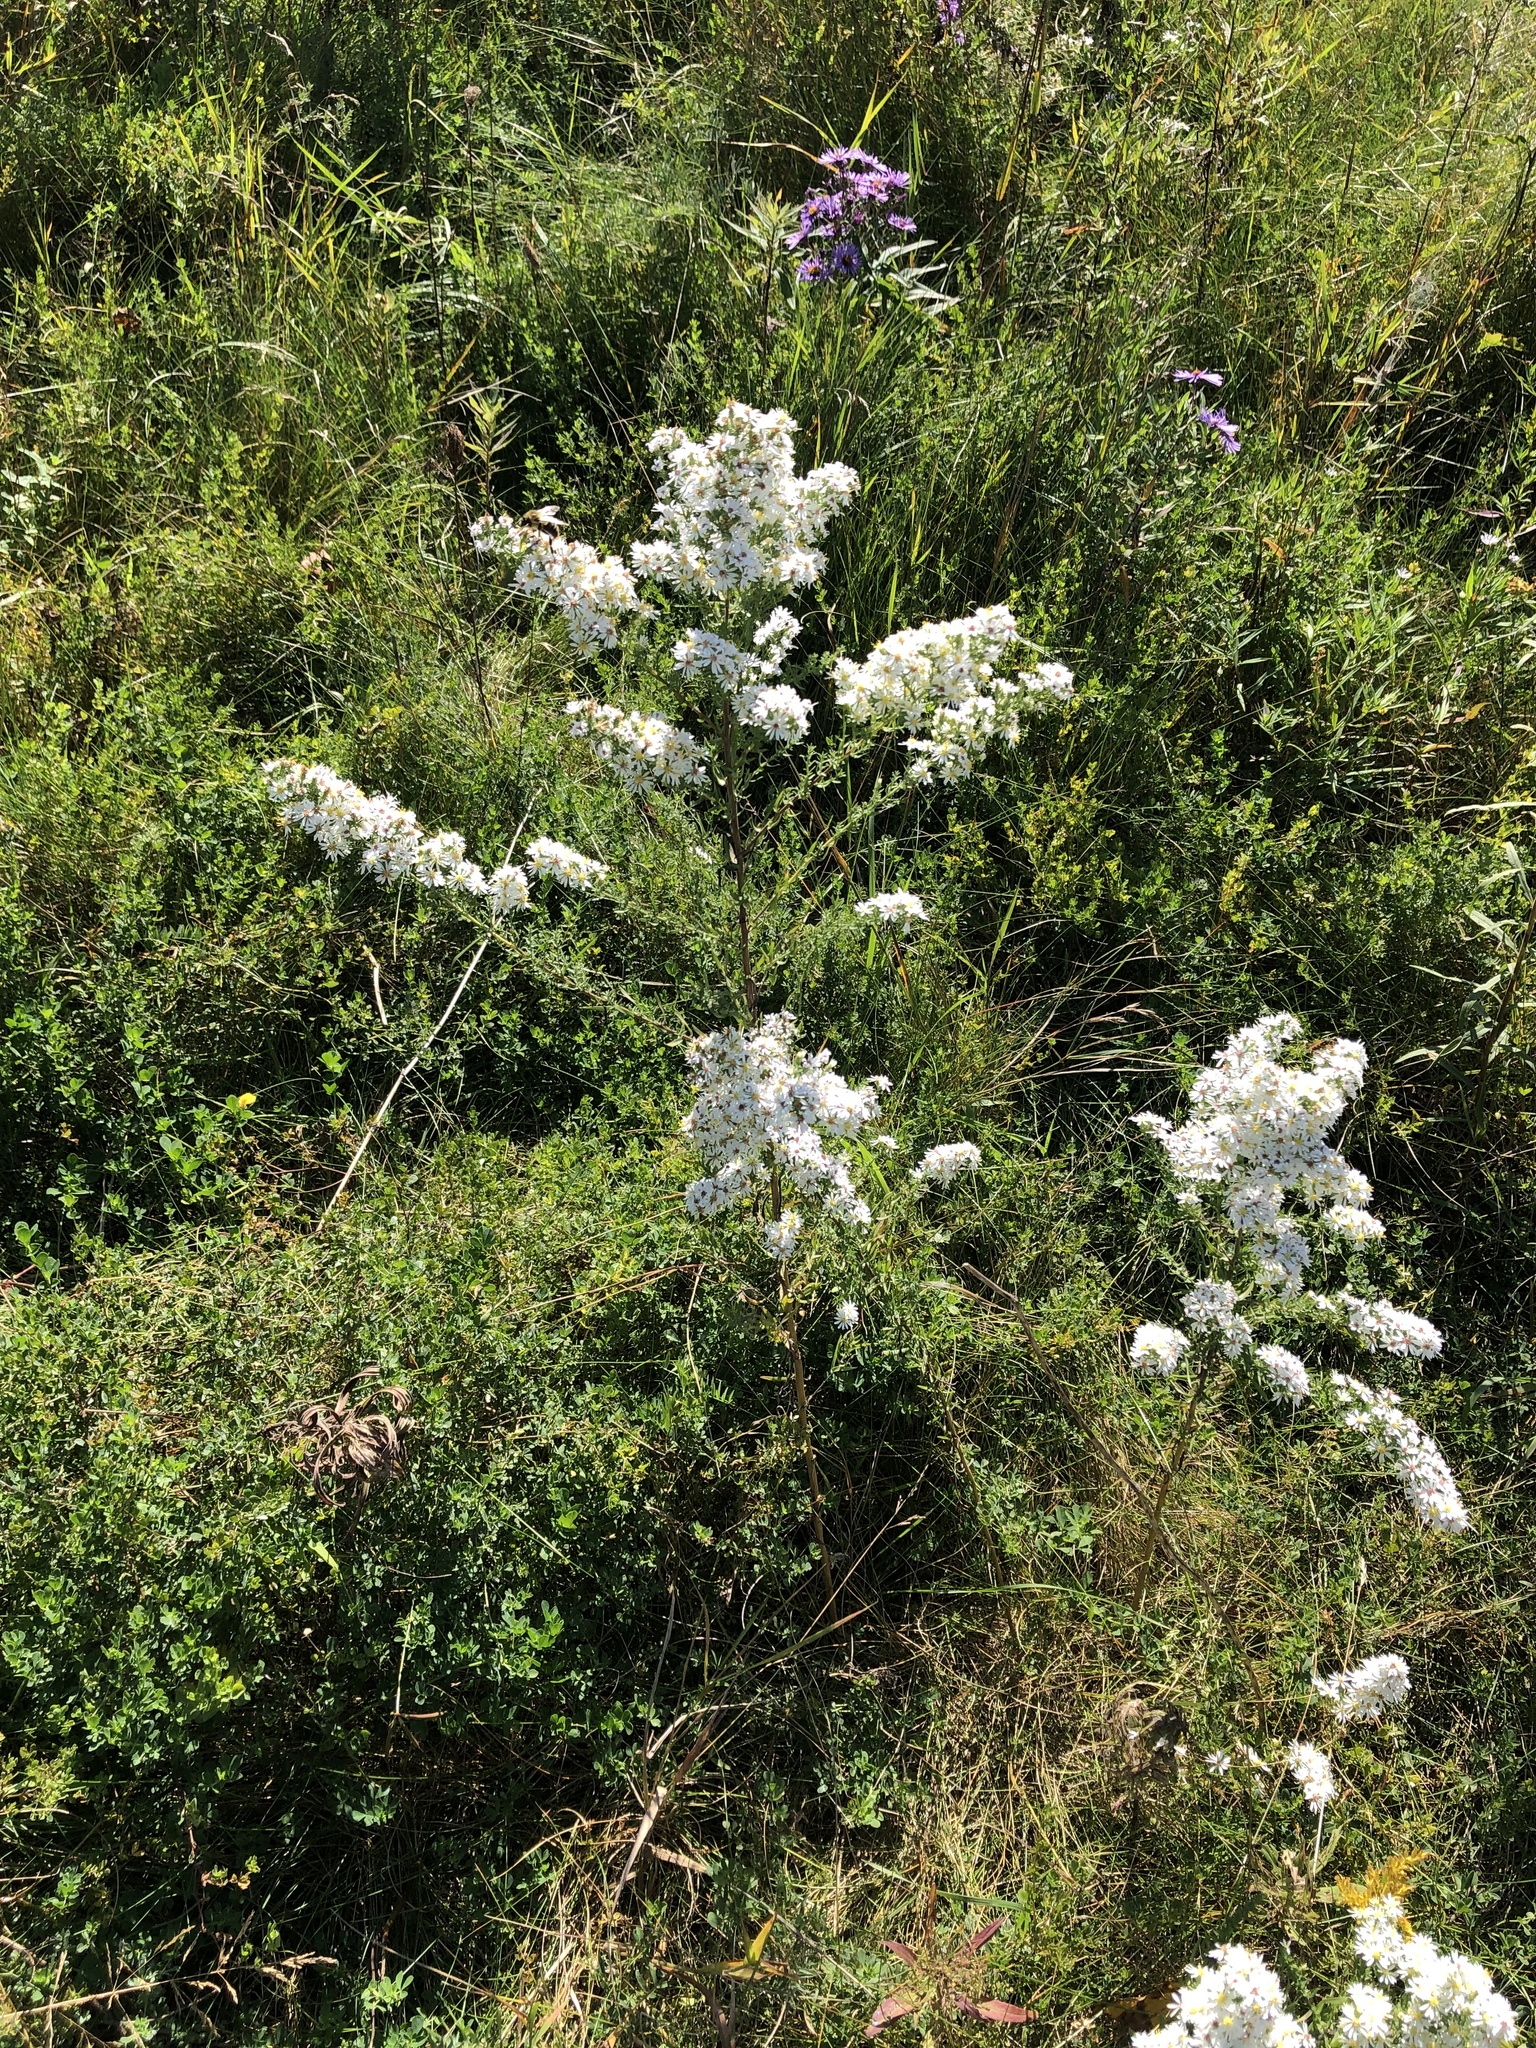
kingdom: Plantae
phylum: Tracheophyta
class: Magnoliopsida
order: Asterales
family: Asteraceae
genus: Symphyotrichum
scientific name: Symphyotrichum ericoides
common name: Heath aster
